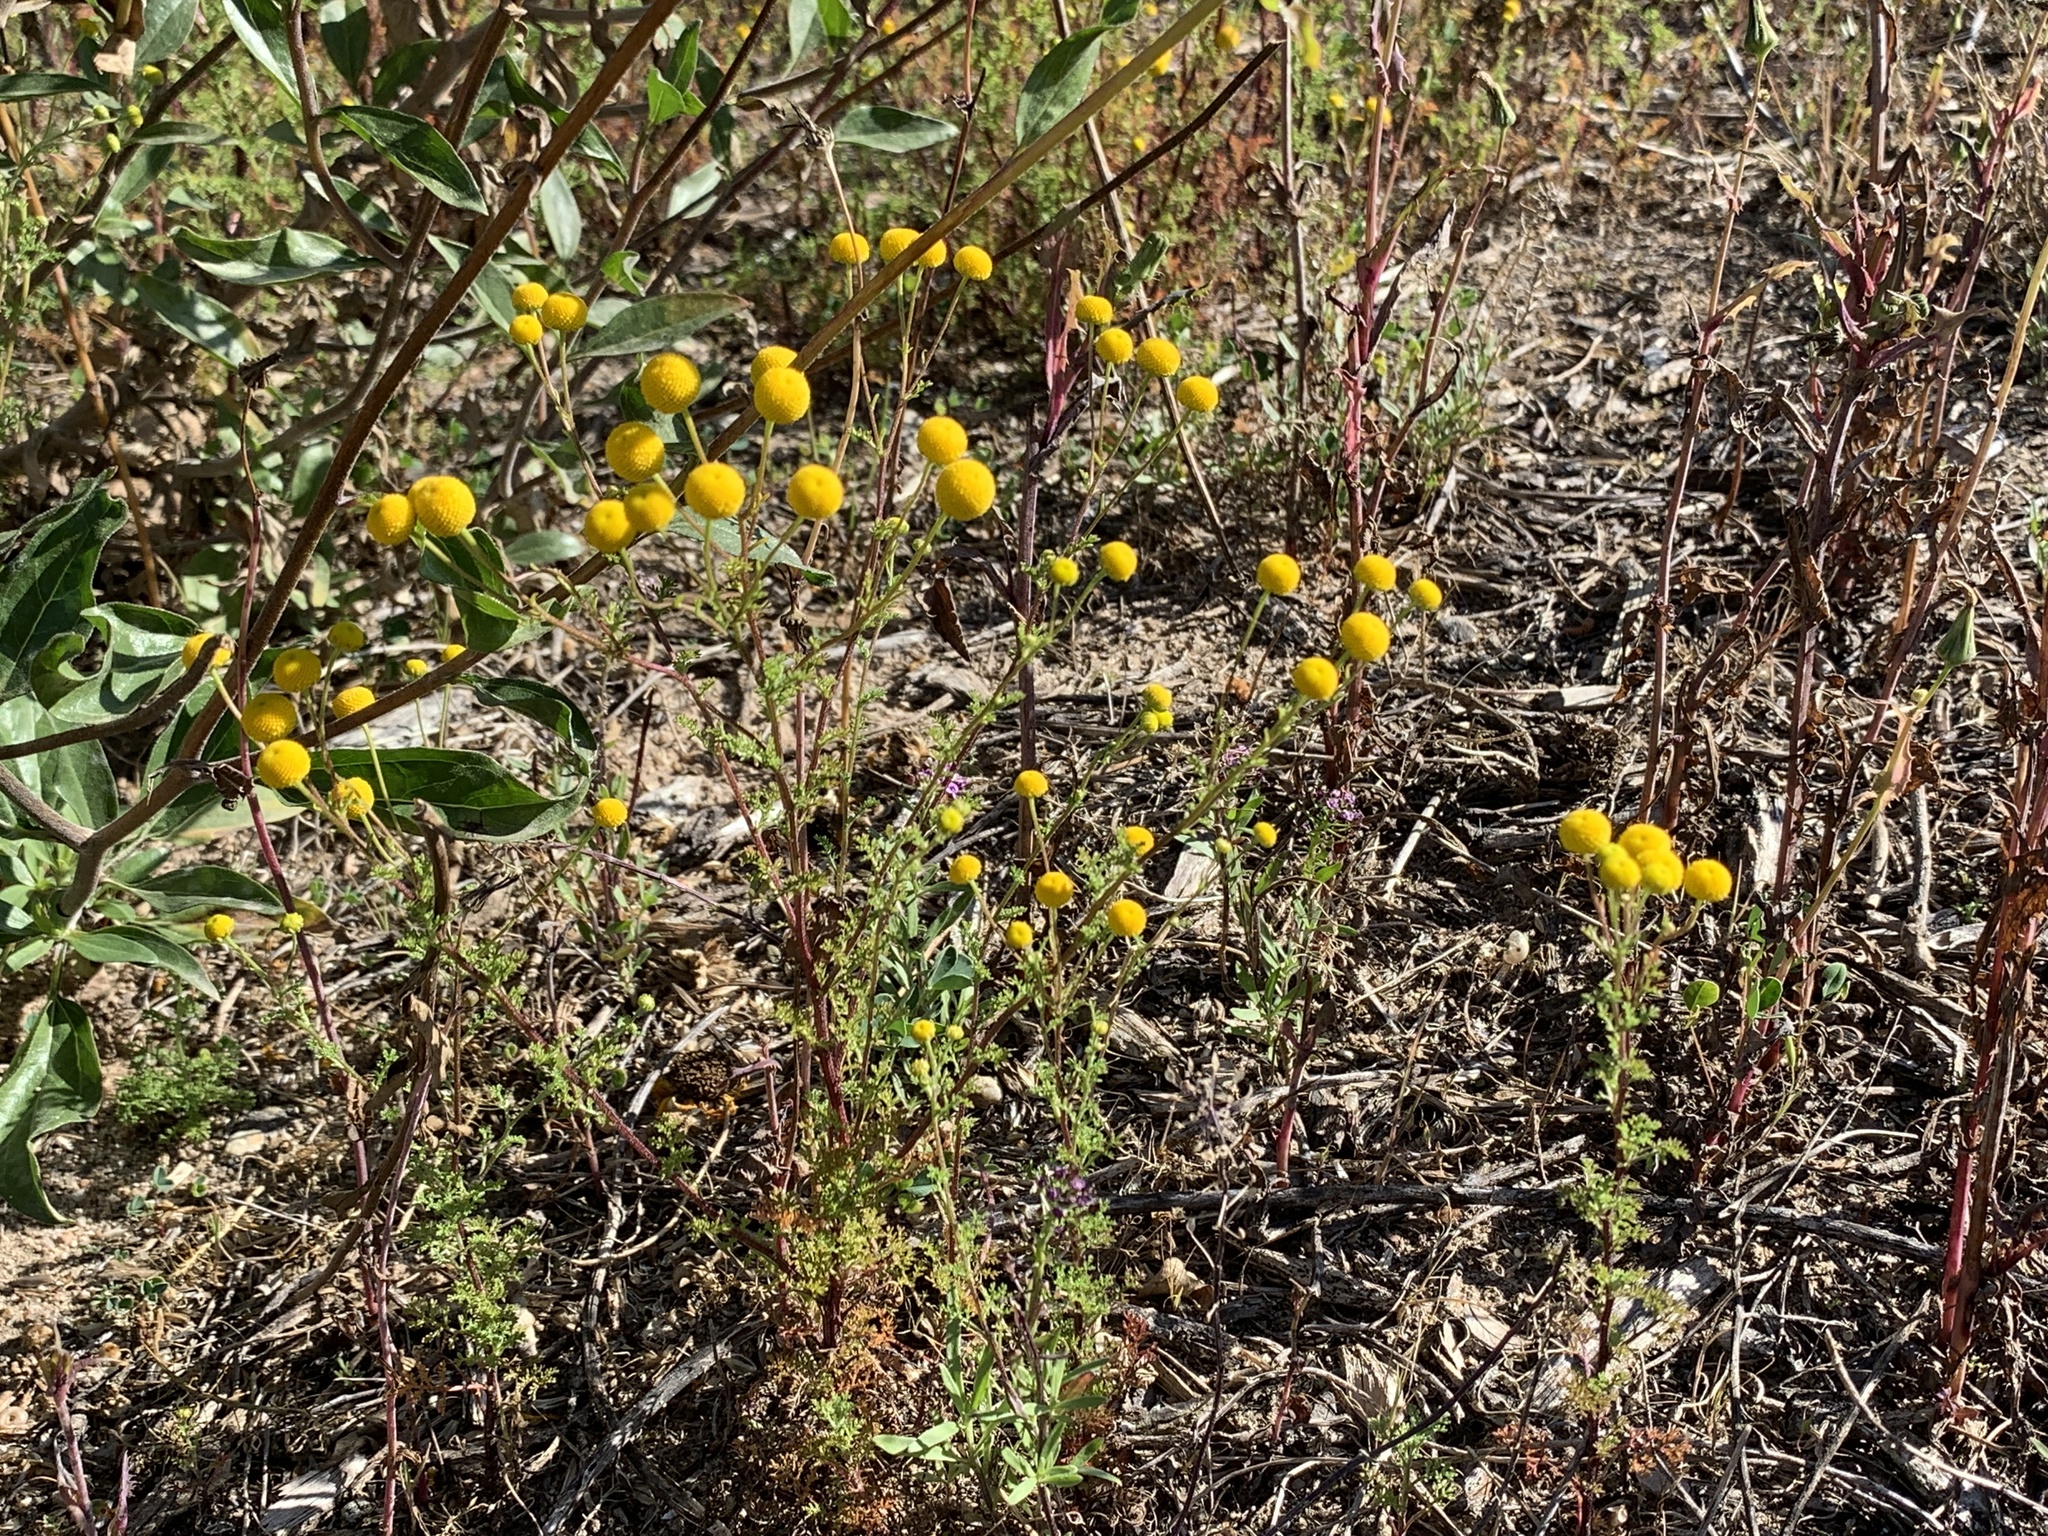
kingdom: Plantae
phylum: Tracheophyta
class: Magnoliopsida
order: Asterales
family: Asteraceae
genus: Oncosiphon
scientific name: Oncosiphon pilulifer
